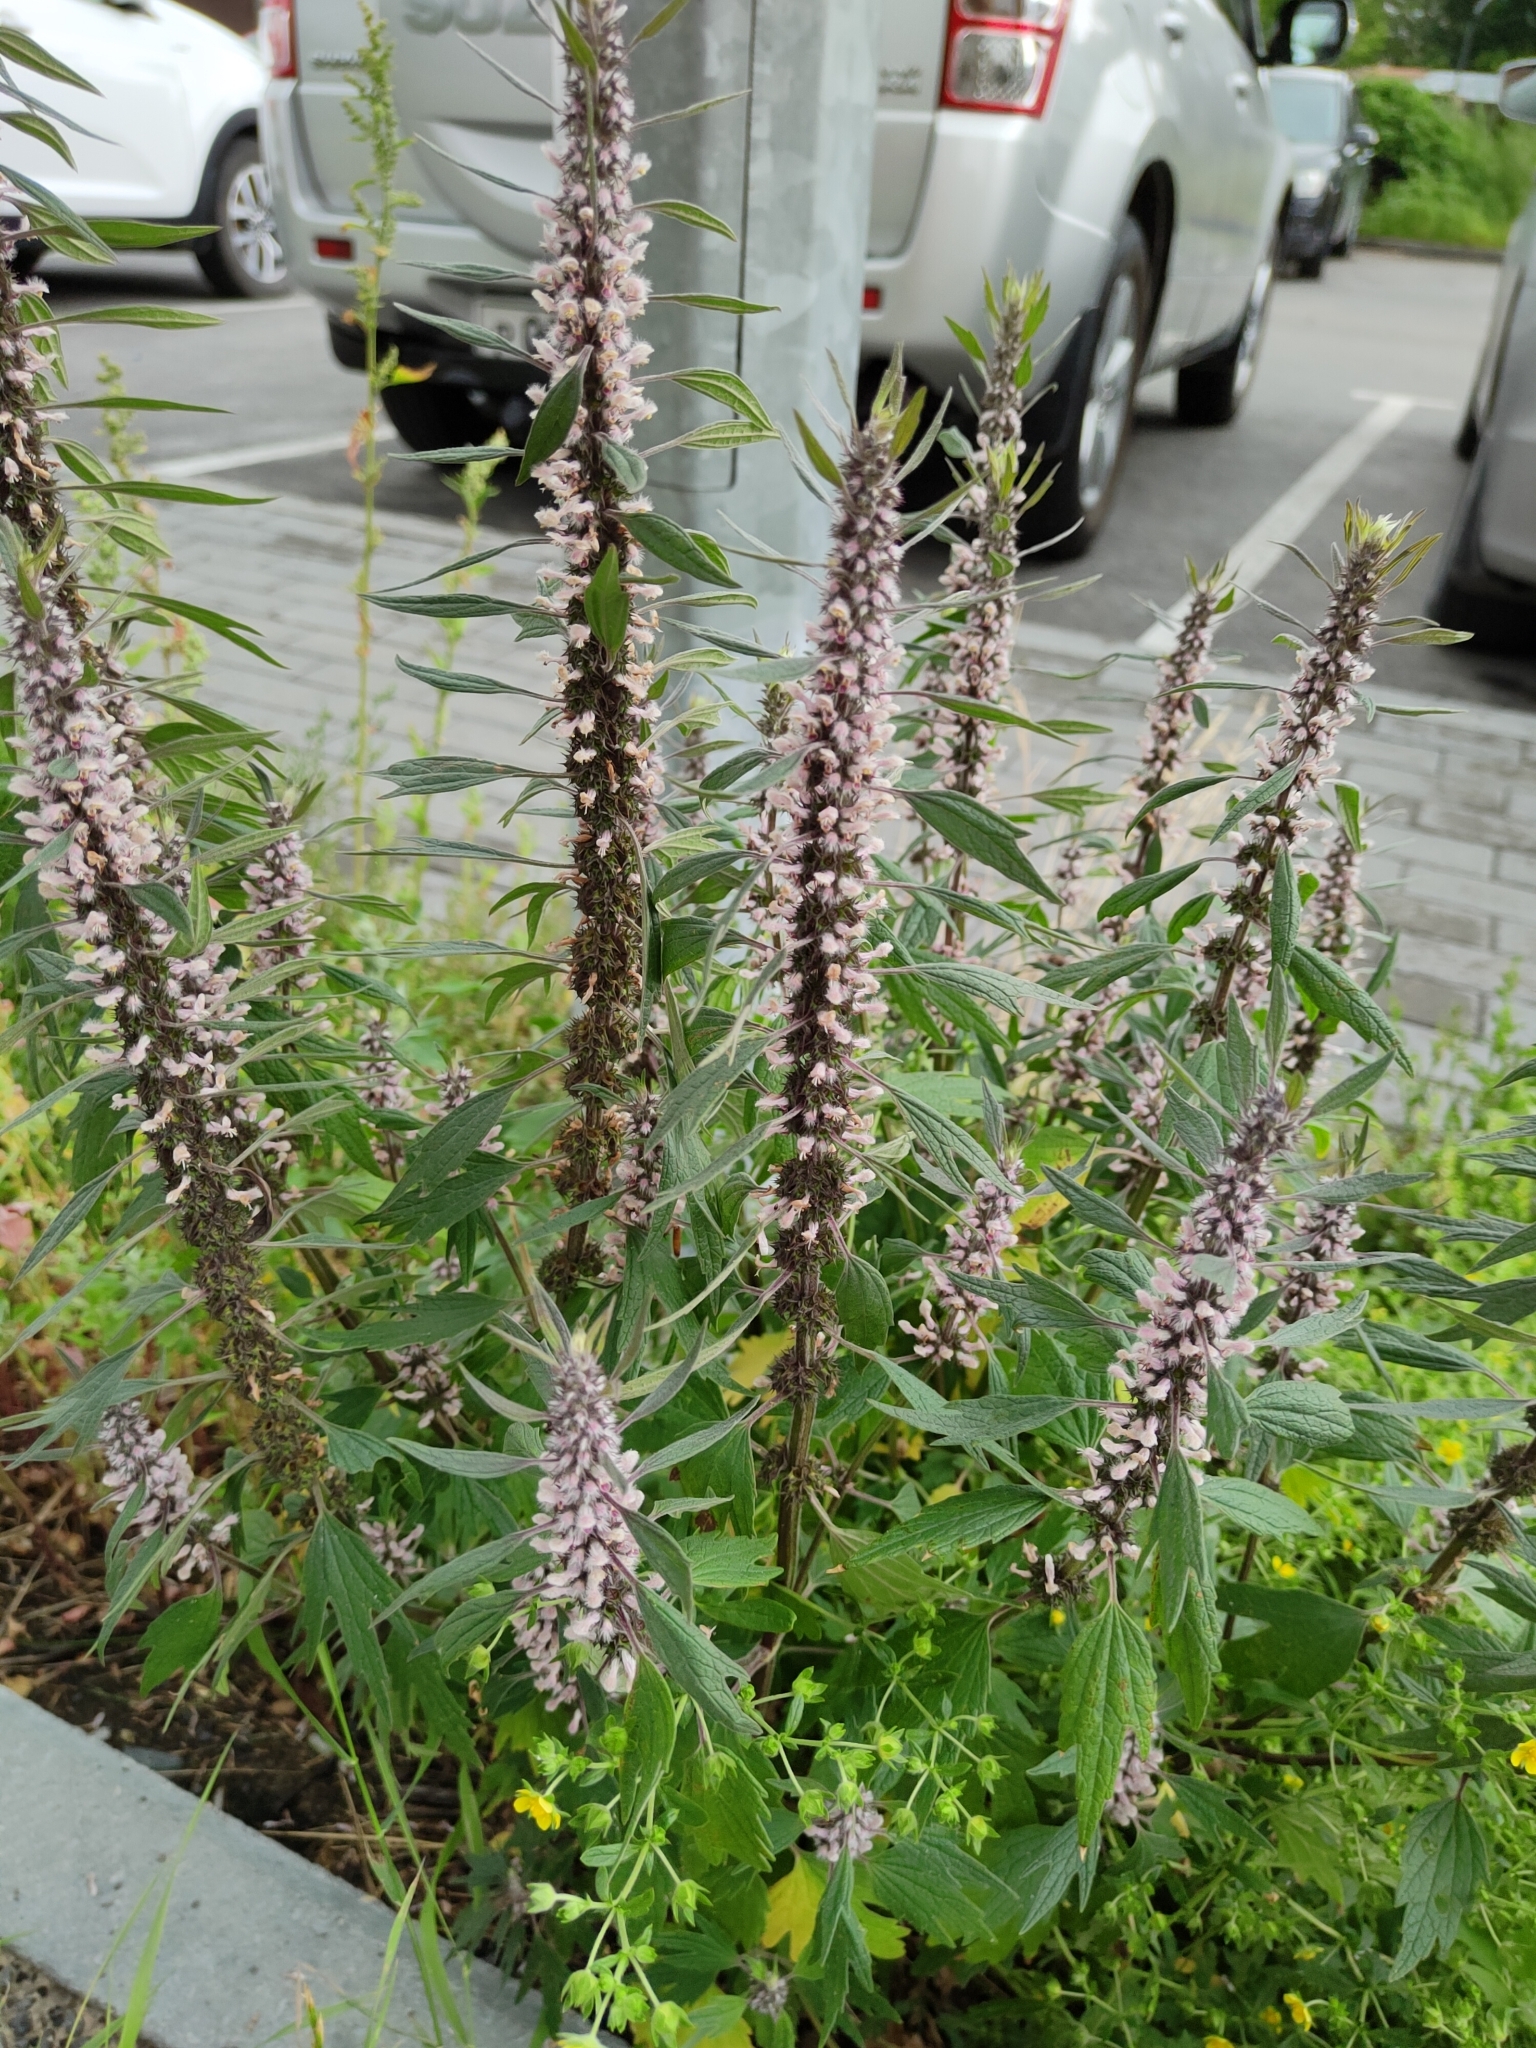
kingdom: Plantae
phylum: Tracheophyta
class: Magnoliopsida
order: Lamiales
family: Lamiaceae
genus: Leonurus
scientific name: Leonurus quinquelobatus
